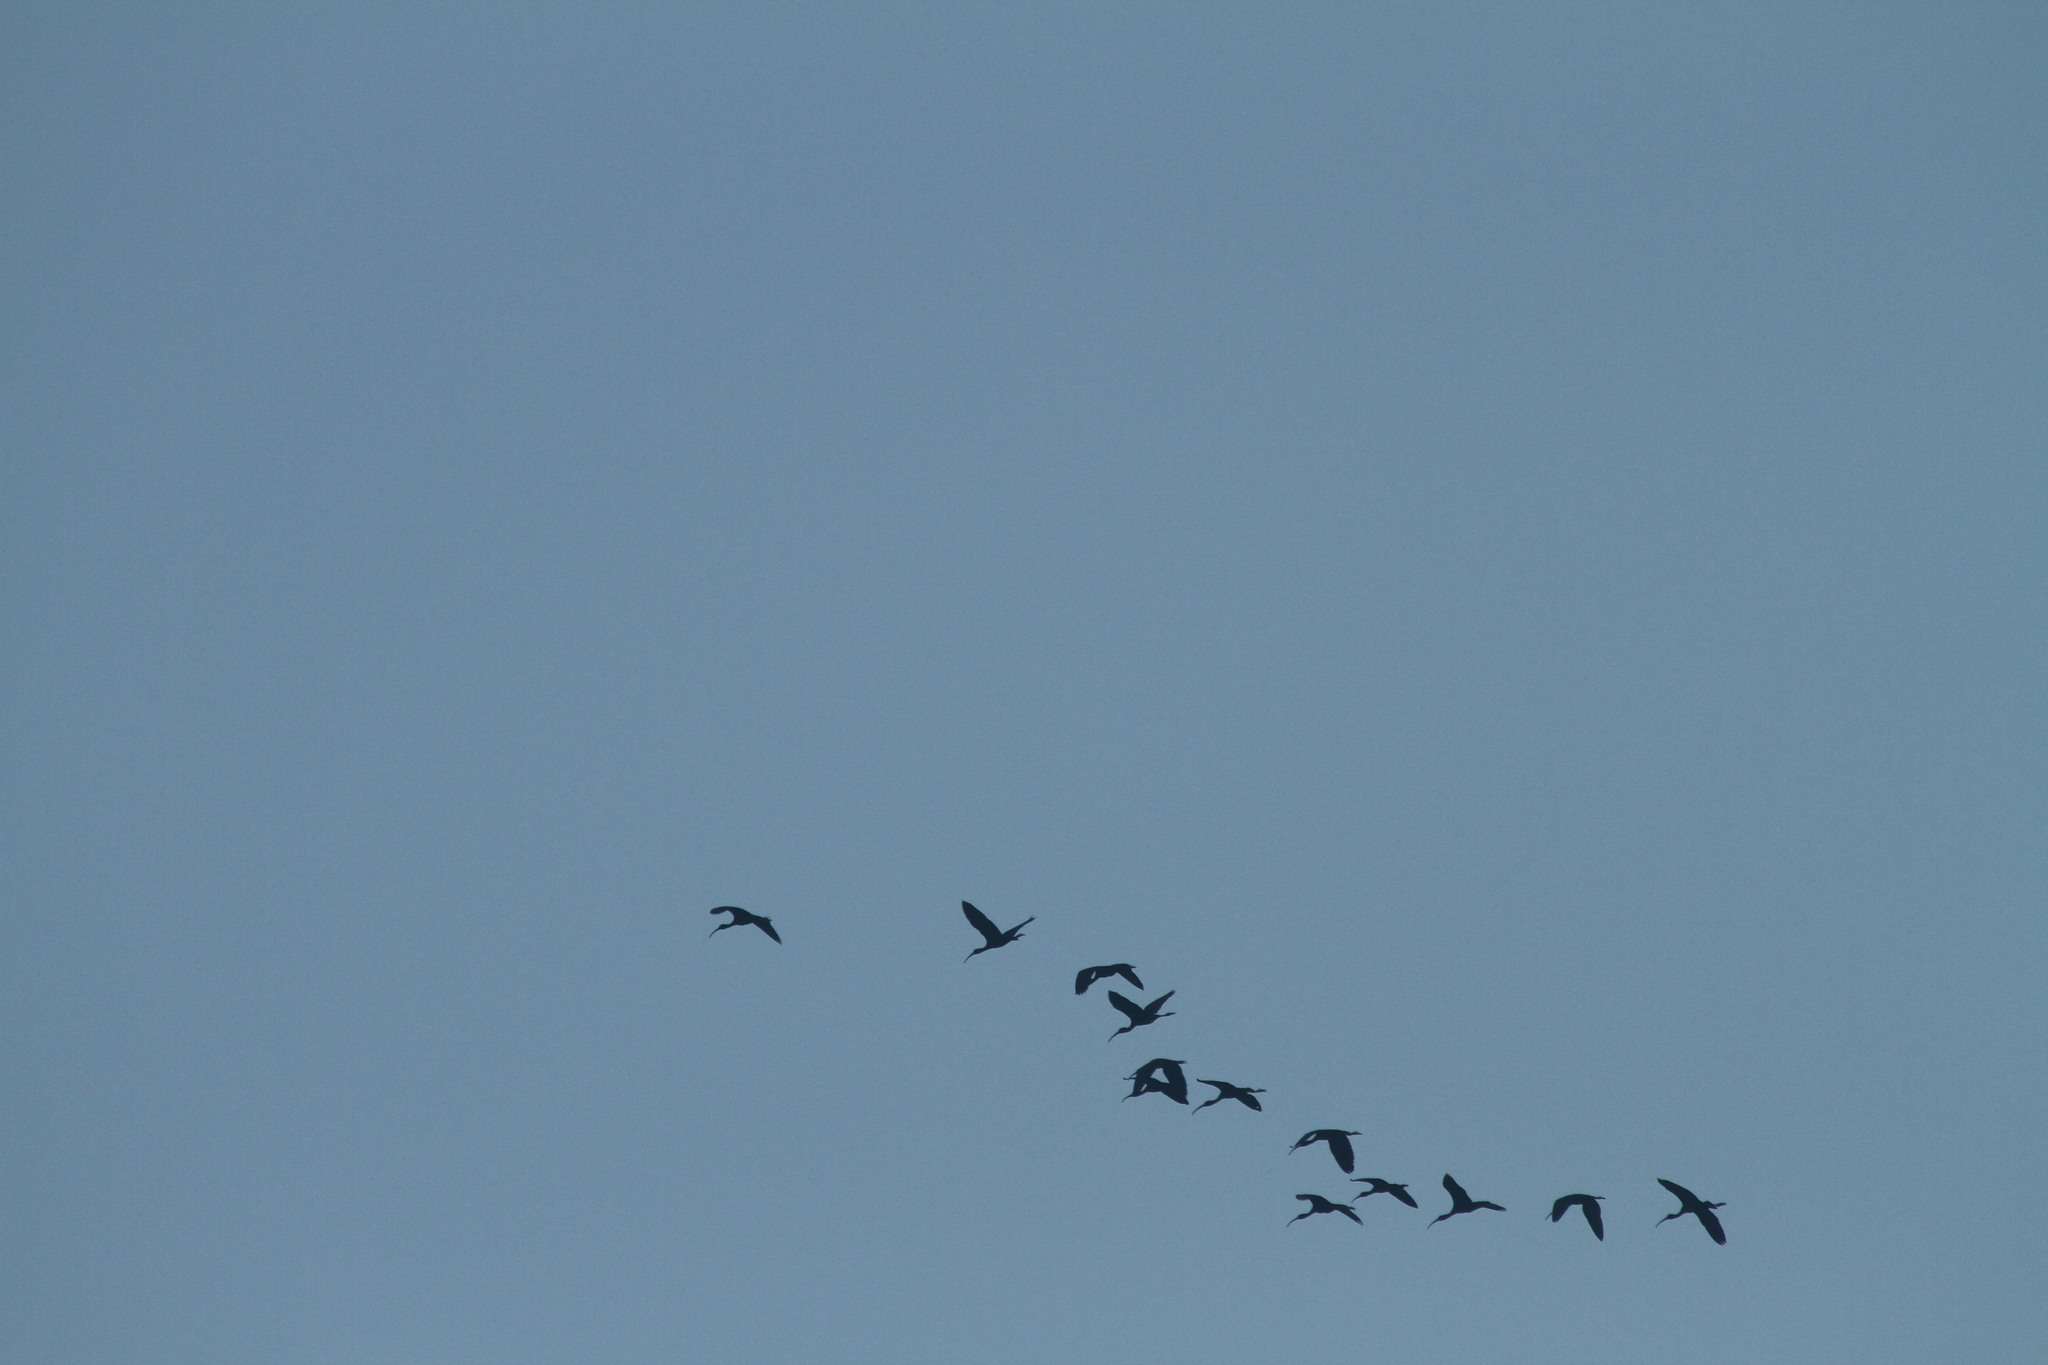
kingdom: Animalia
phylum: Chordata
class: Aves
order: Pelecaniformes
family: Threskiornithidae
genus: Plegadis
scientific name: Plegadis falcinellus
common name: Glossy ibis
